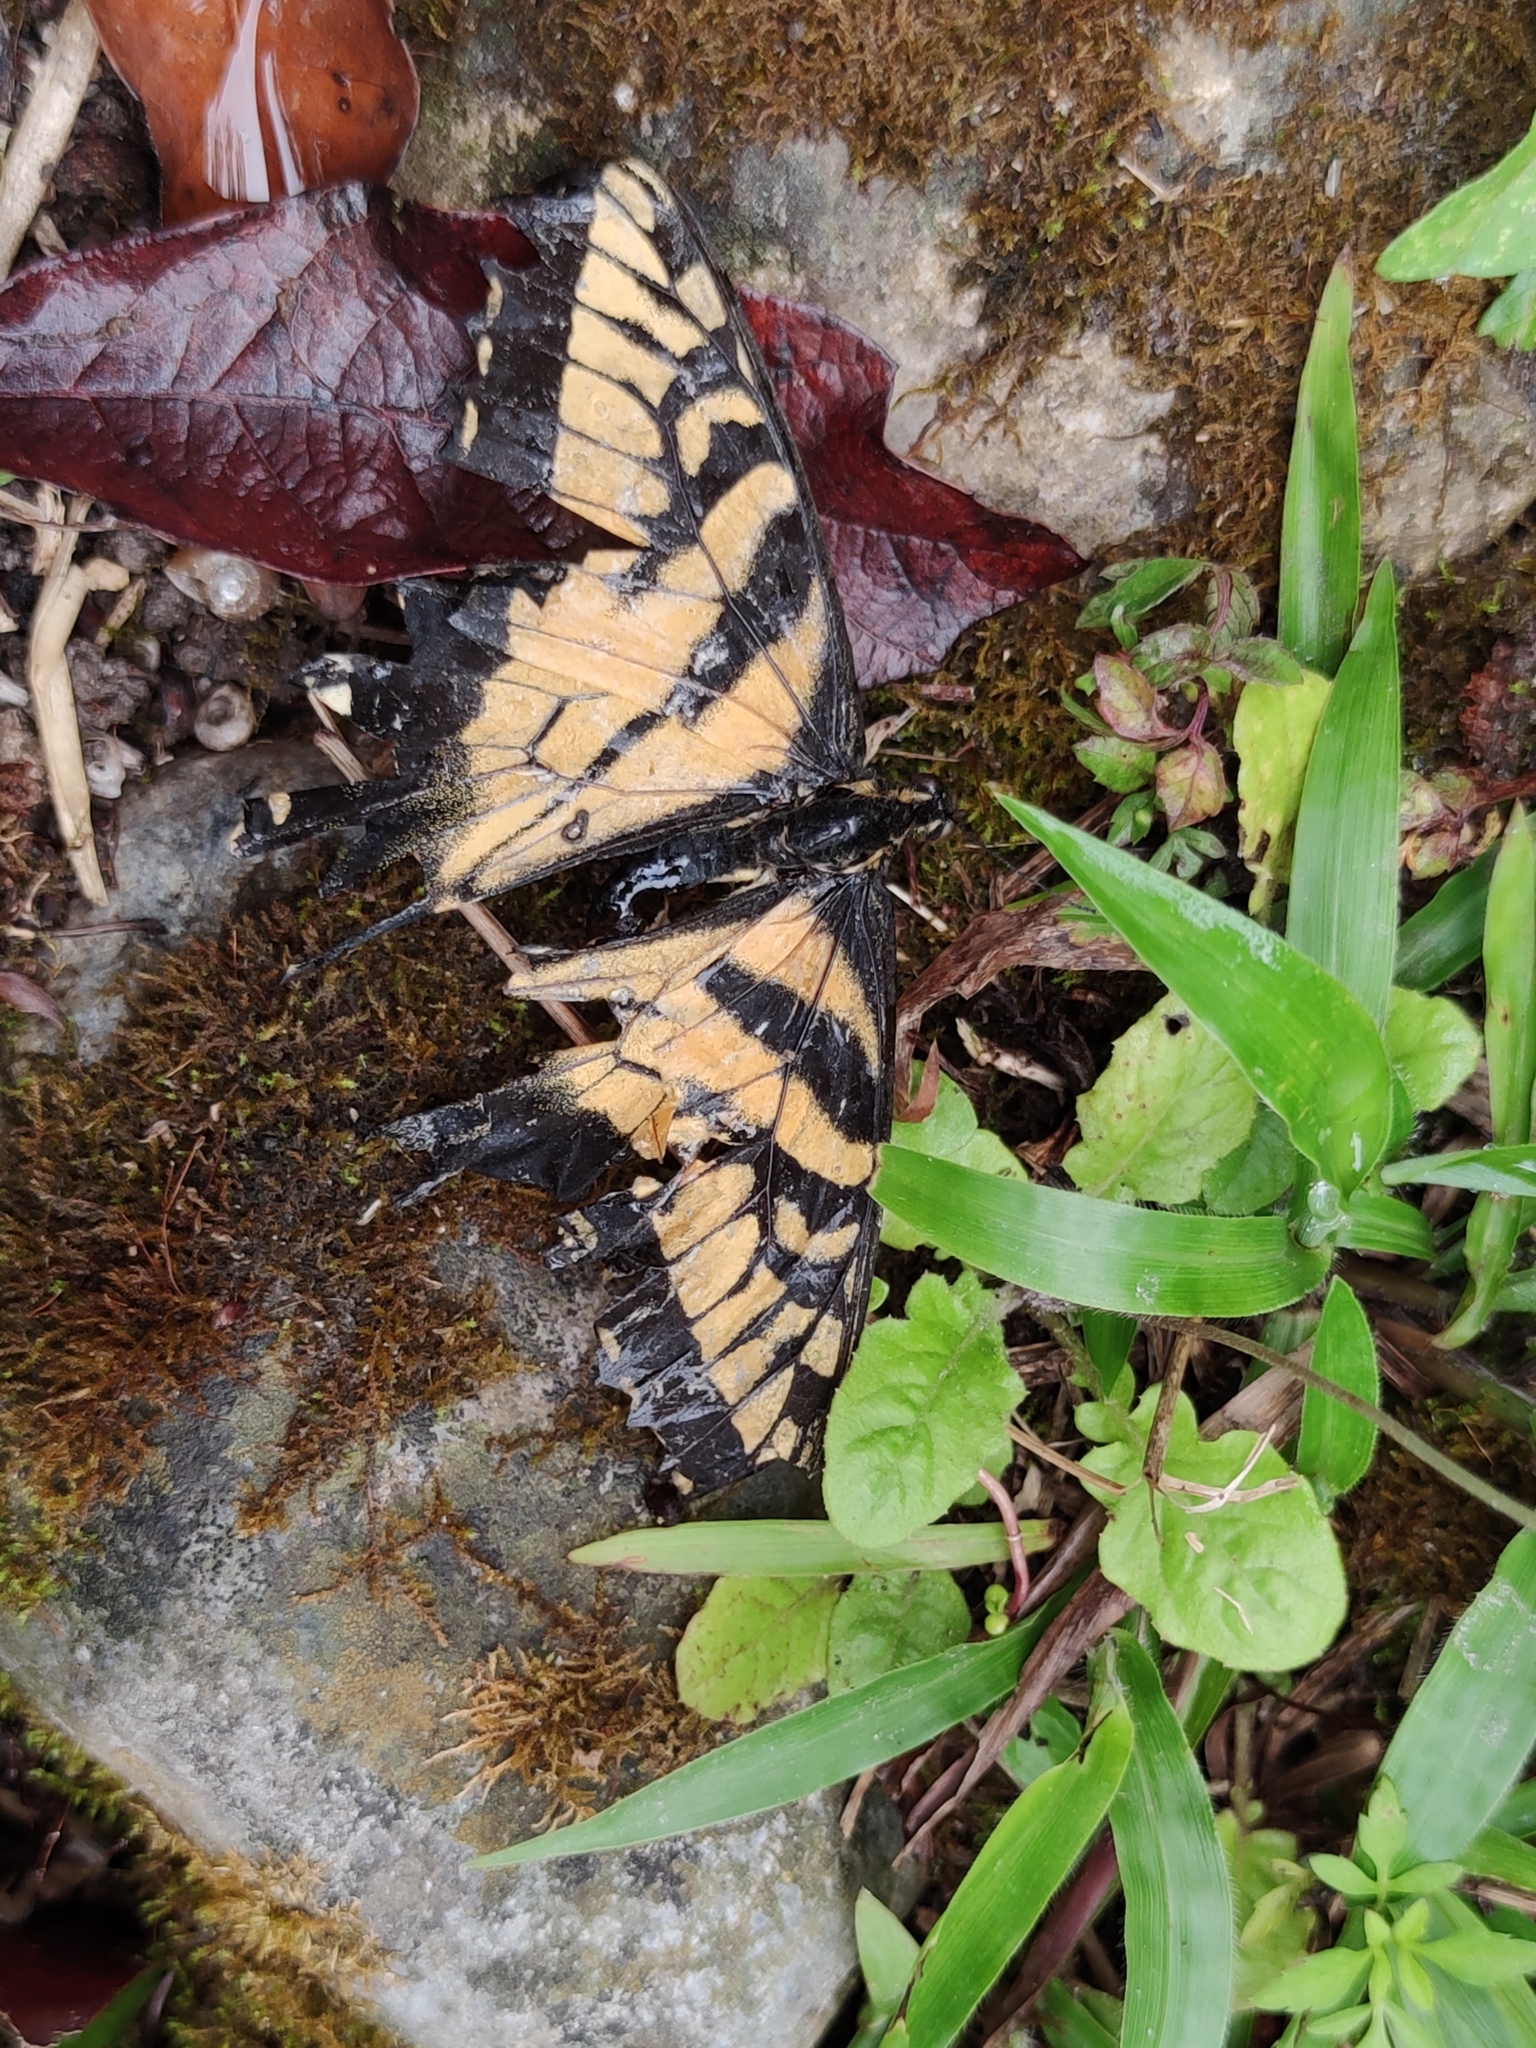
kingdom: Animalia
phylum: Arthropoda
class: Insecta
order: Lepidoptera
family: Papilionidae
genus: Papilio
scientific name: Papilio glaucus
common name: Tiger swallowtail
